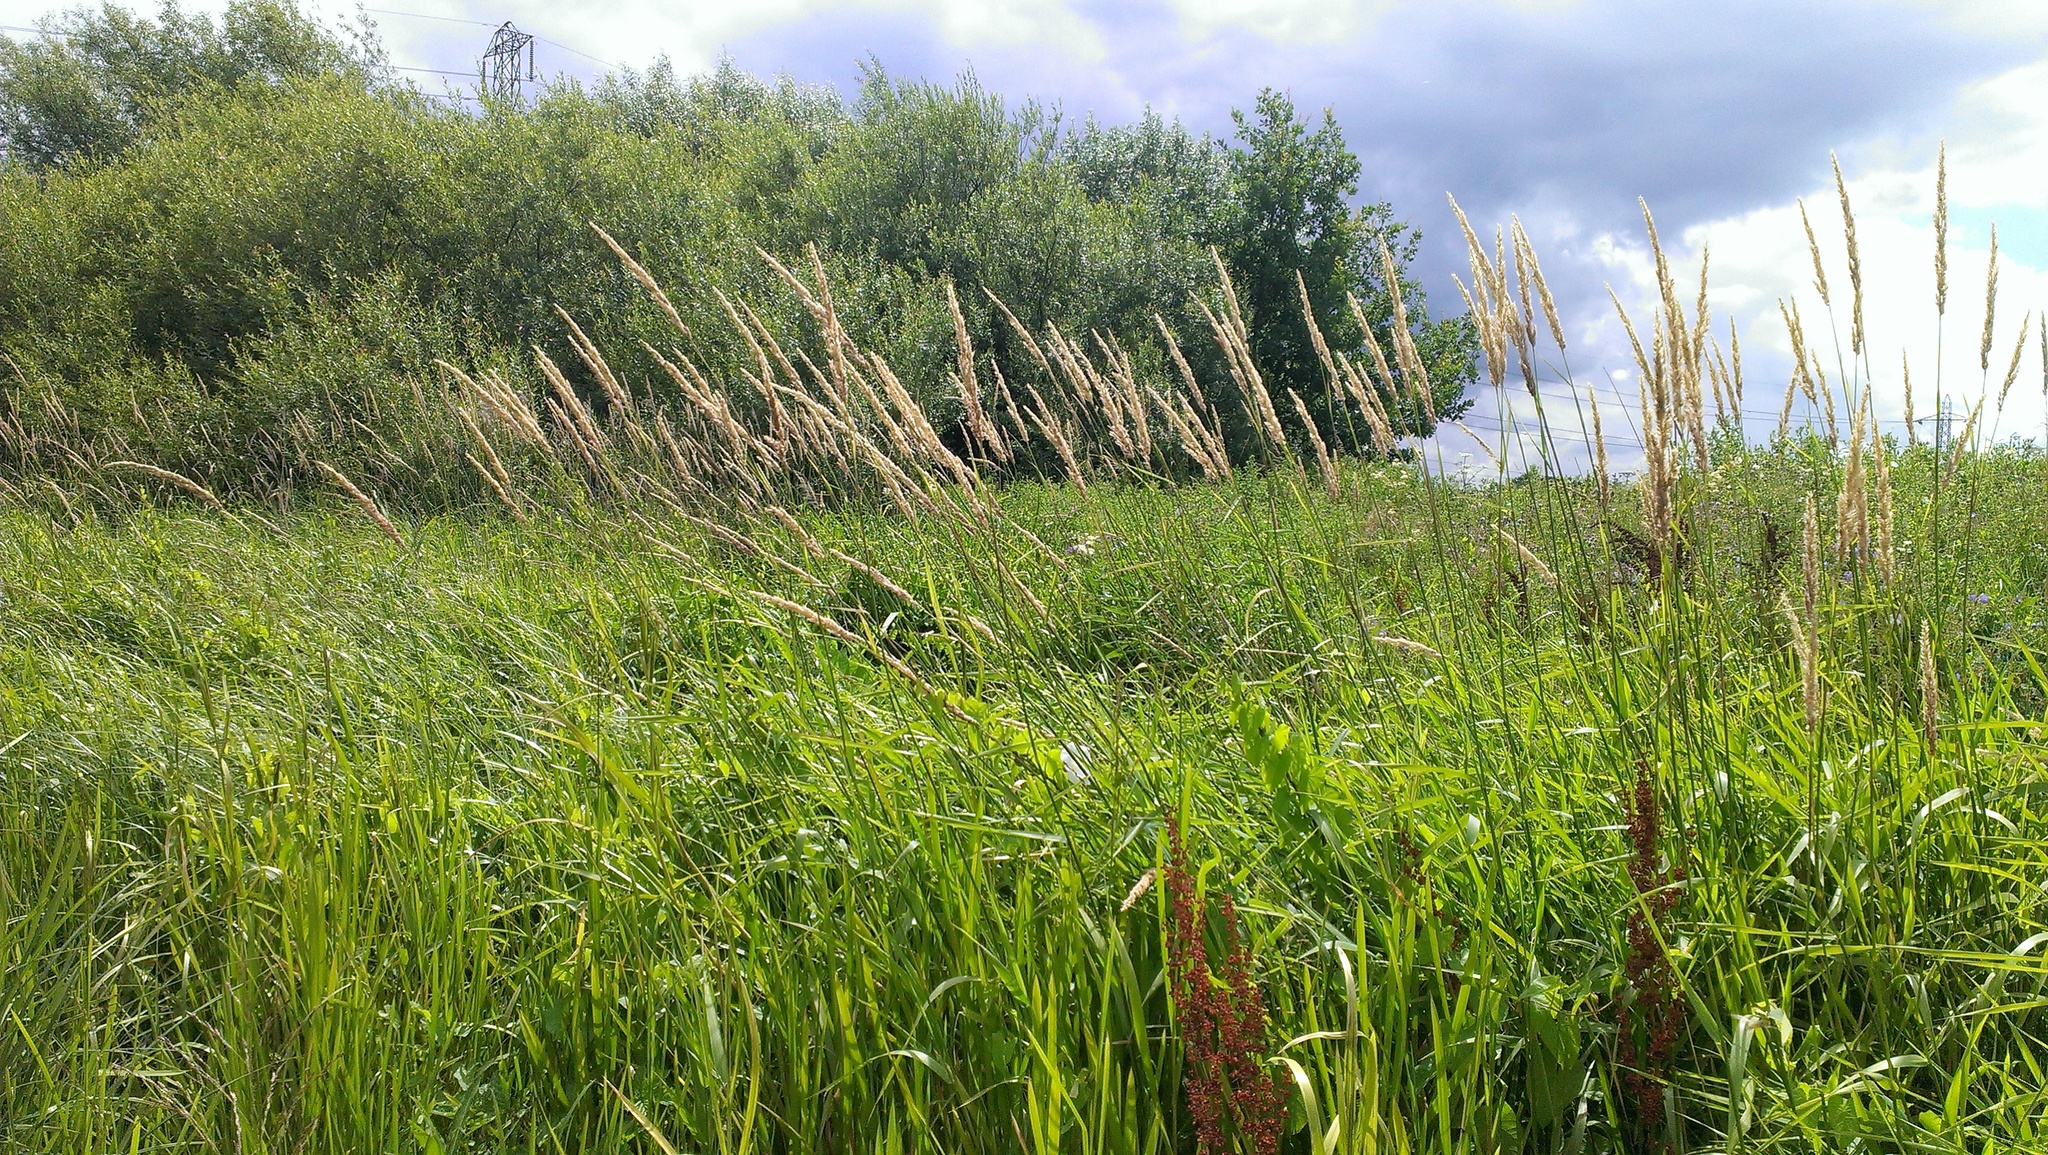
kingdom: Plantae
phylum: Tracheophyta
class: Liliopsida
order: Poales
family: Poaceae
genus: Phalaris
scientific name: Phalaris arundinacea
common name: Reed canary-grass
